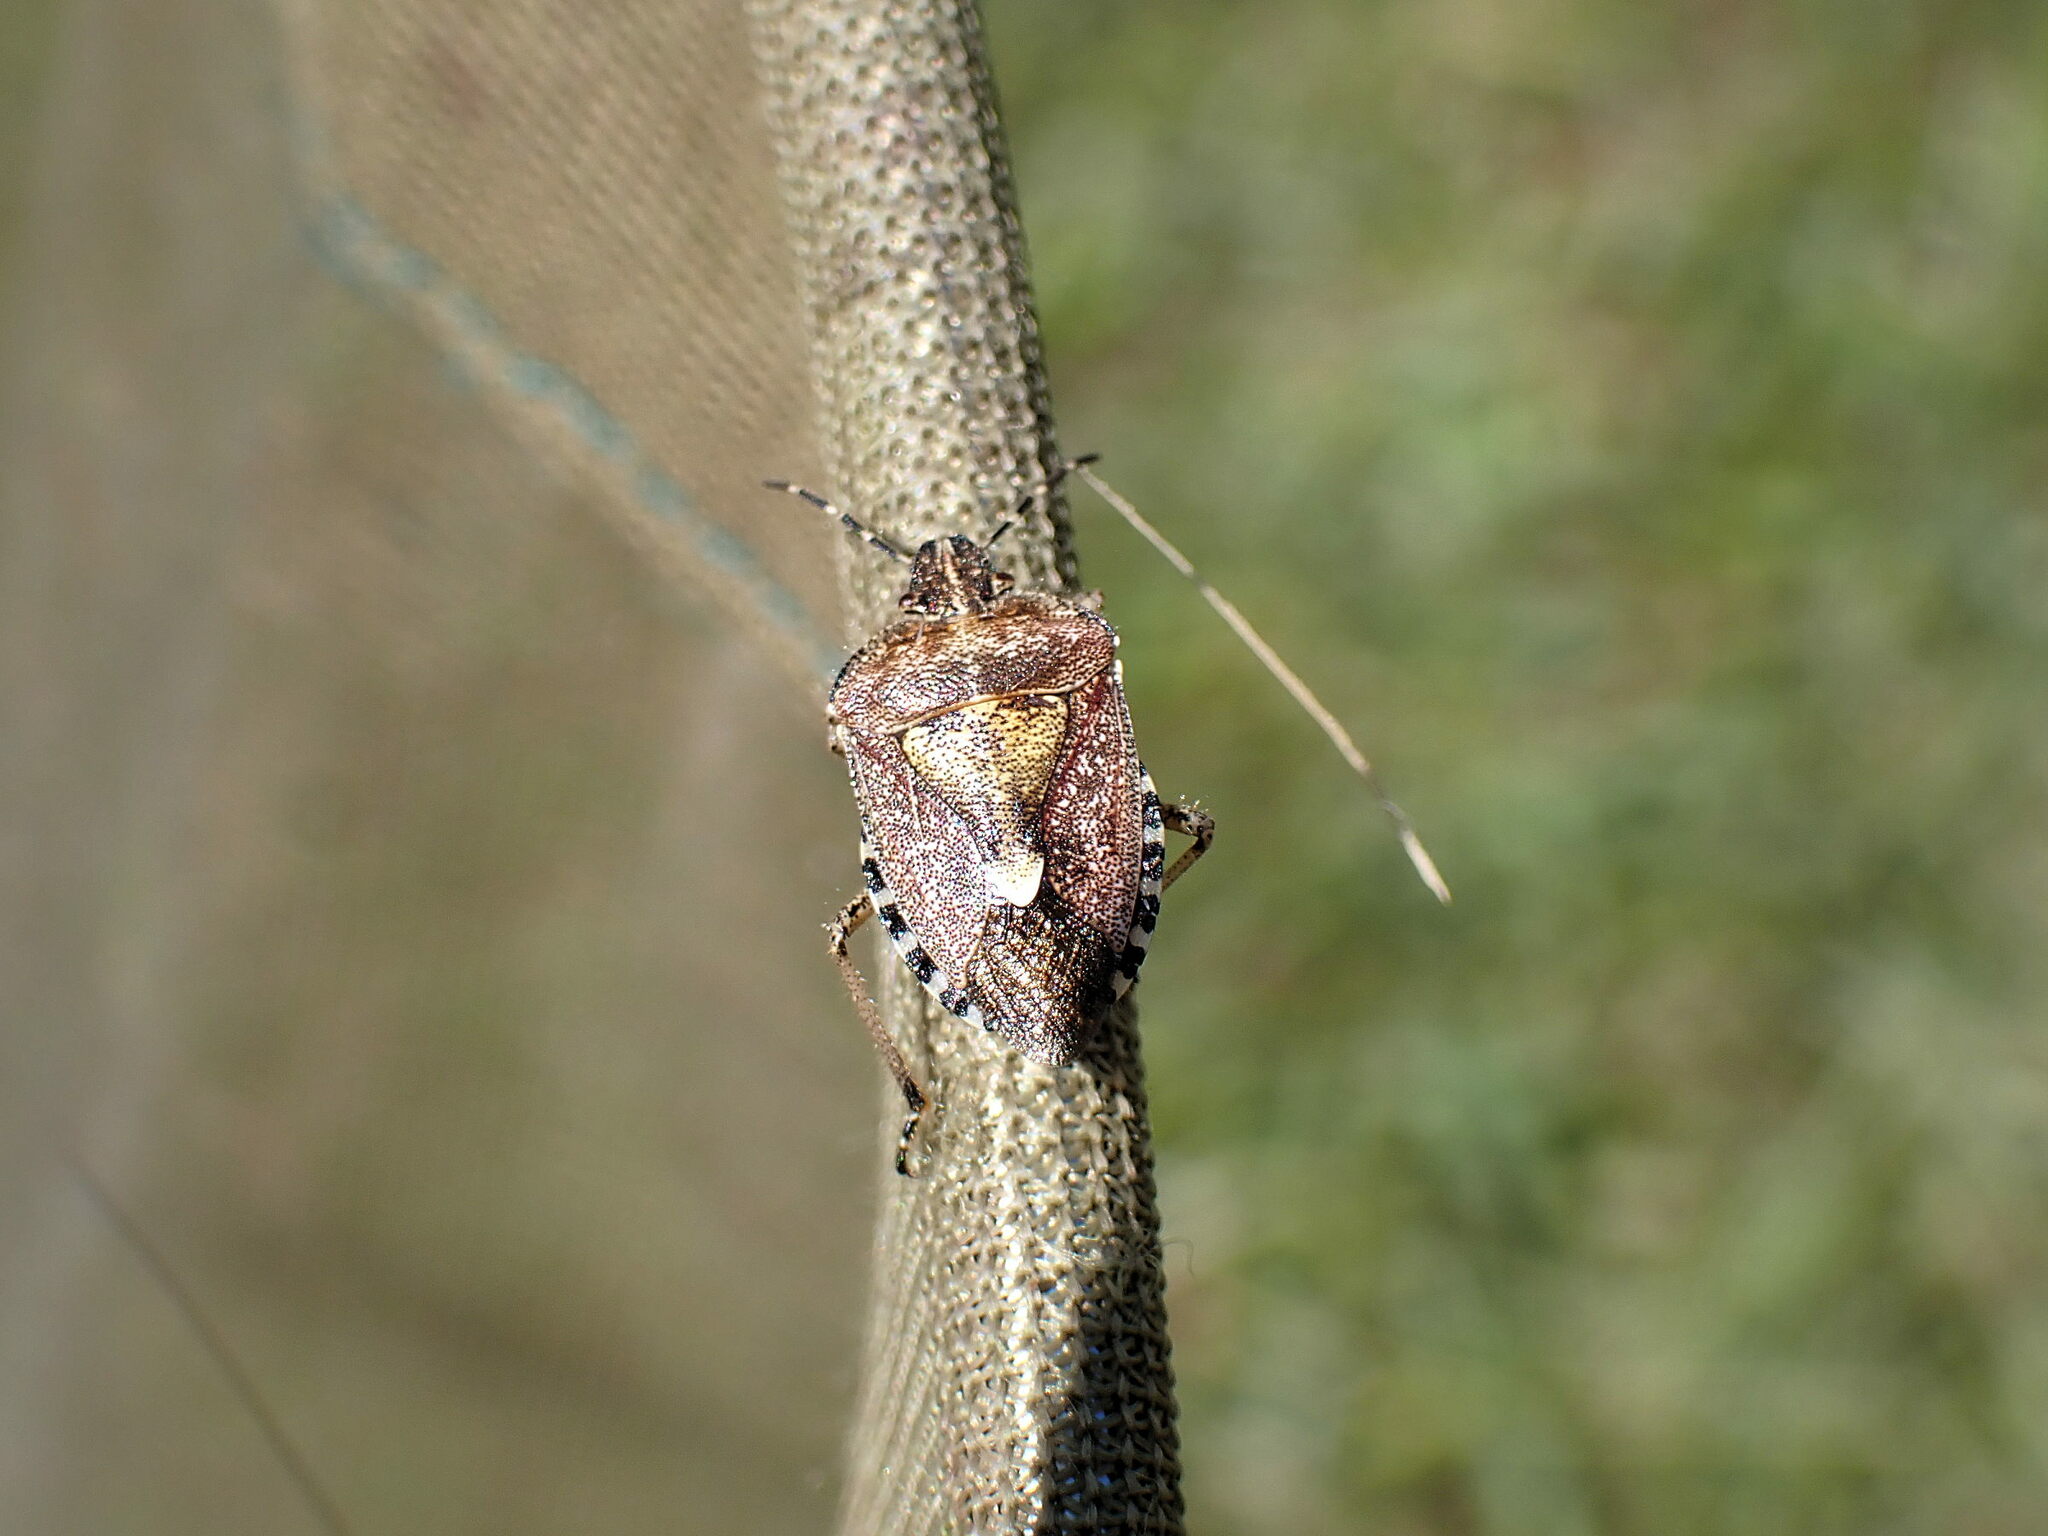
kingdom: Animalia
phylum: Arthropoda
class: Insecta
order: Hemiptera
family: Pentatomidae
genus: Dolycoris
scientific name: Dolycoris baccarum
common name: Sloe bug
